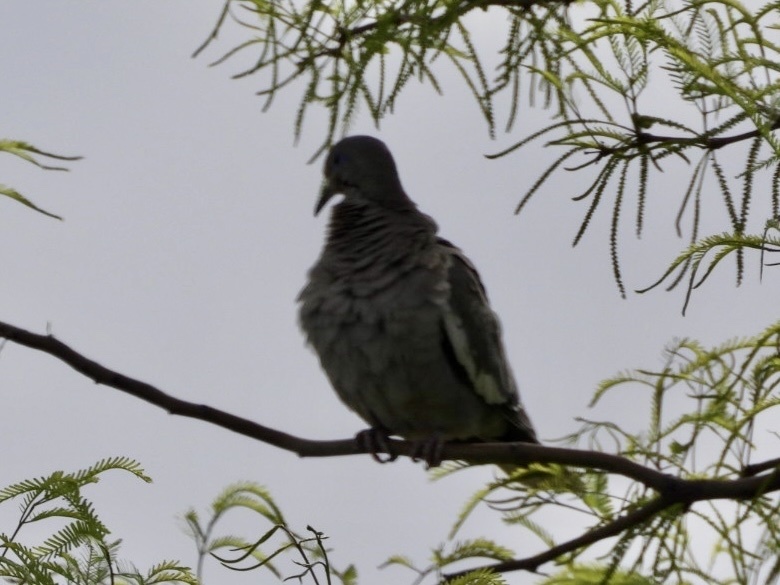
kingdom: Animalia
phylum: Chordata
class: Aves
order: Columbiformes
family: Columbidae
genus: Zenaida
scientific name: Zenaida asiatica
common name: White-winged dove
